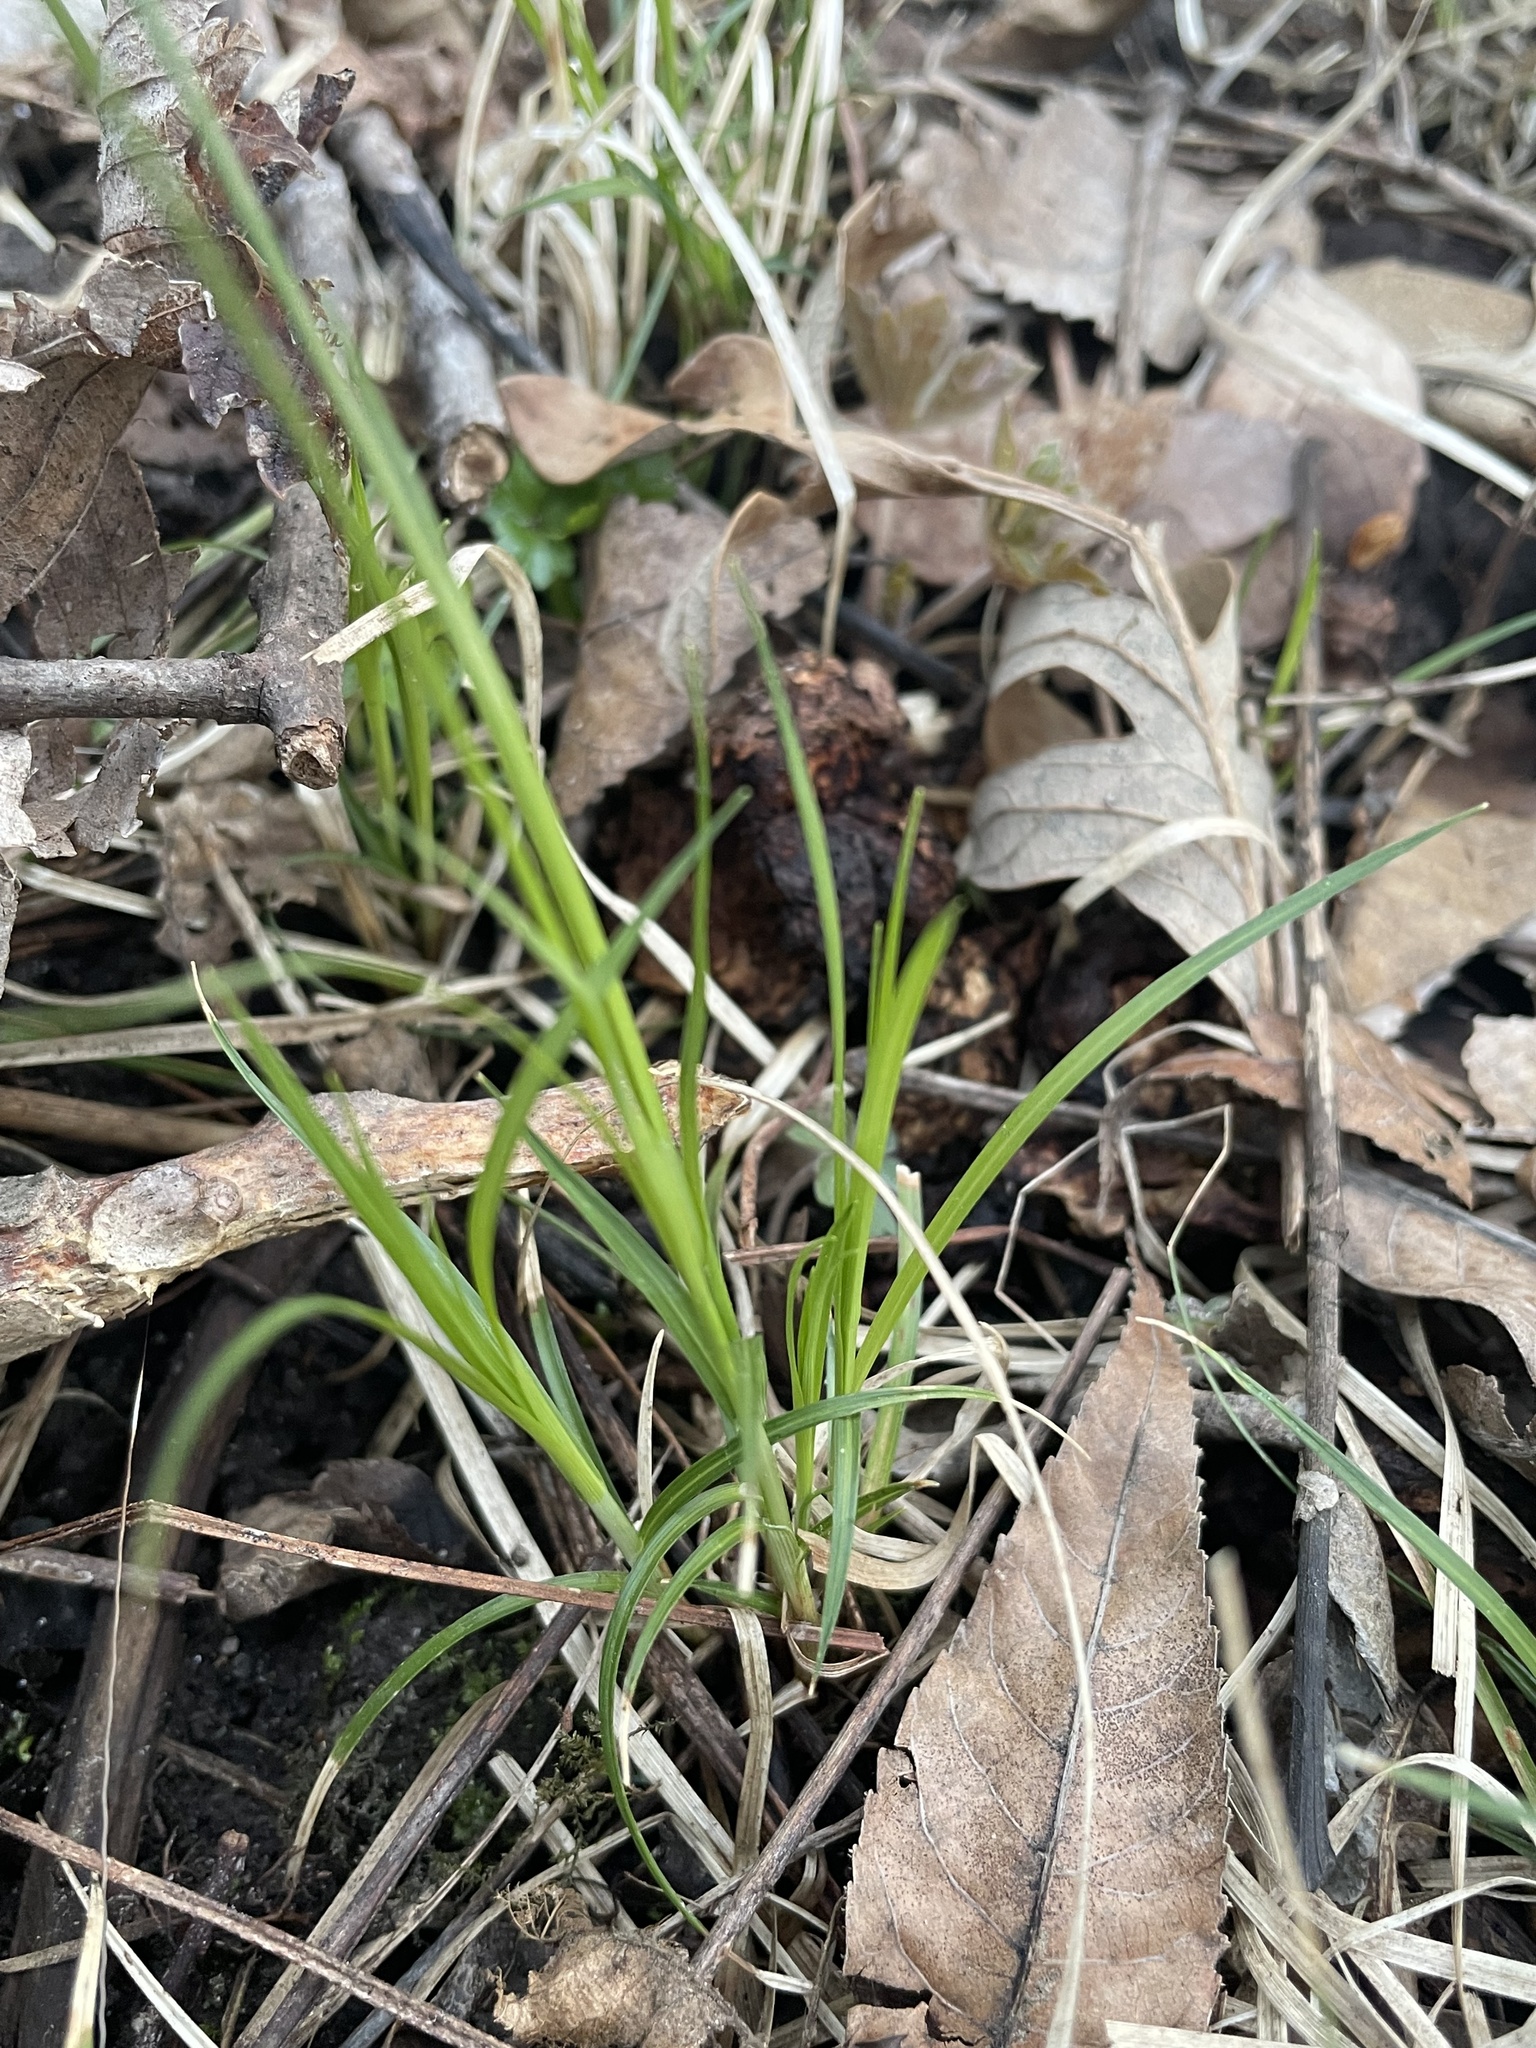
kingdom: Plantae
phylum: Tracheophyta
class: Liliopsida
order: Poales
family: Cyperaceae
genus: Carex
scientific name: Carex pensylvanica
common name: Common oak sedge
